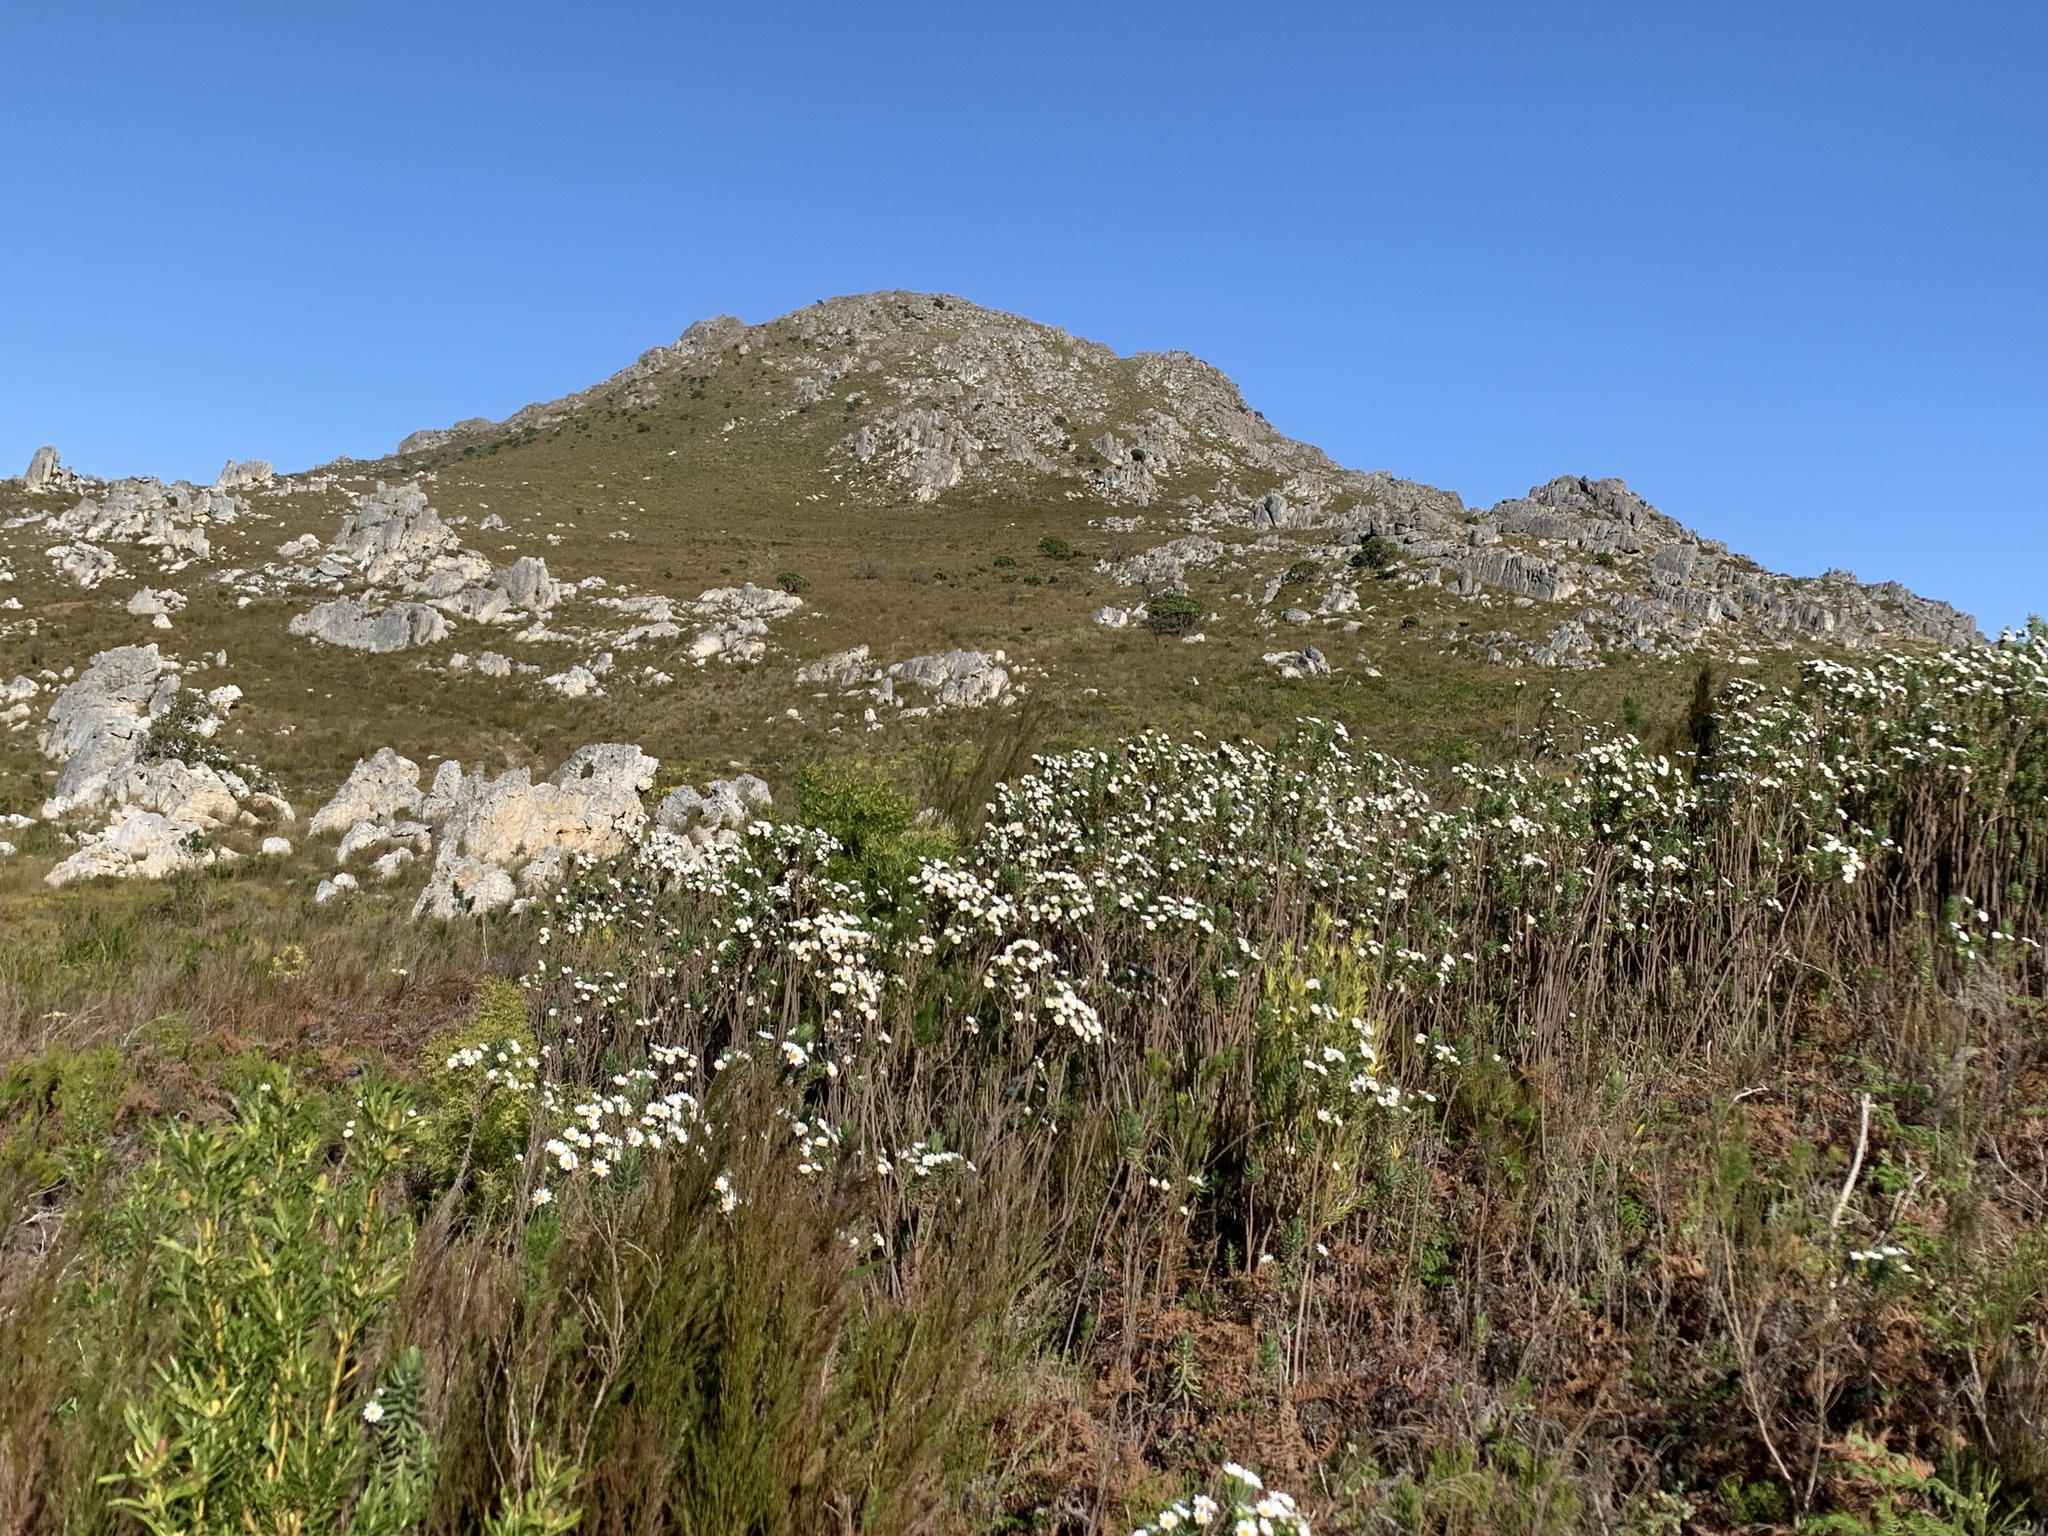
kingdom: Plantae
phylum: Tracheophyta
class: Magnoliopsida
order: Asterales
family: Asteraceae
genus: Osmitopsis
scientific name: Osmitopsis asteriscoides
